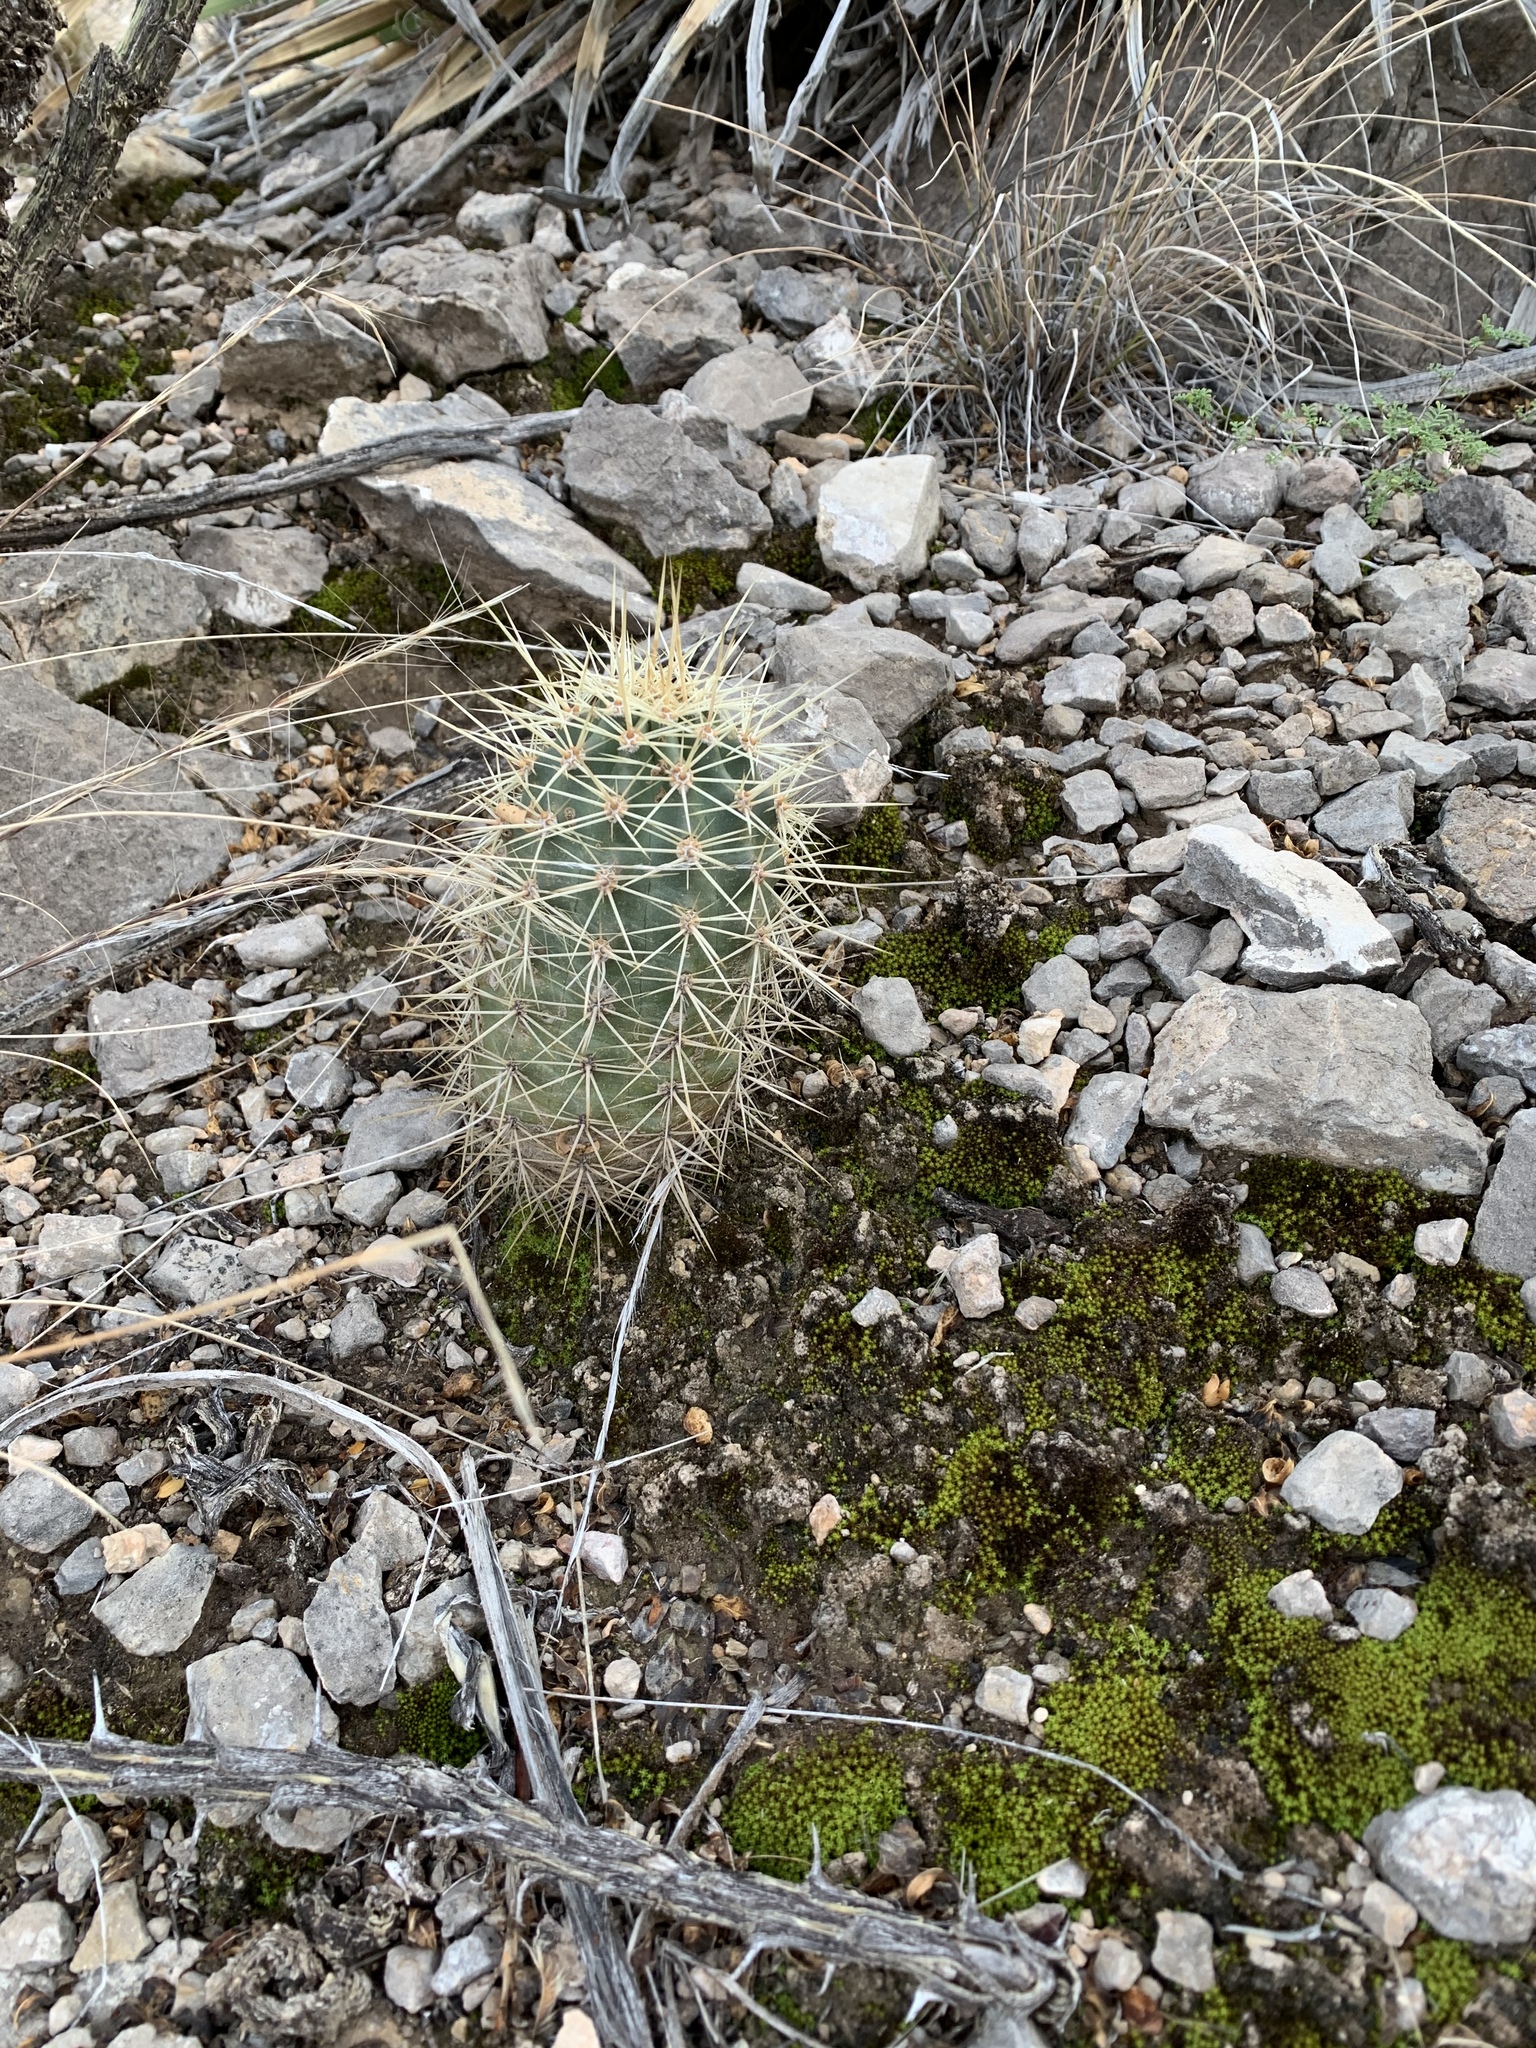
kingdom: Plantae
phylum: Tracheophyta
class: Magnoliopsida
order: Caryophyllales
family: Cactaceae
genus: Echinocereus
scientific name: Echinocereus coccineus
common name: Scarlet hedgehog cactus
